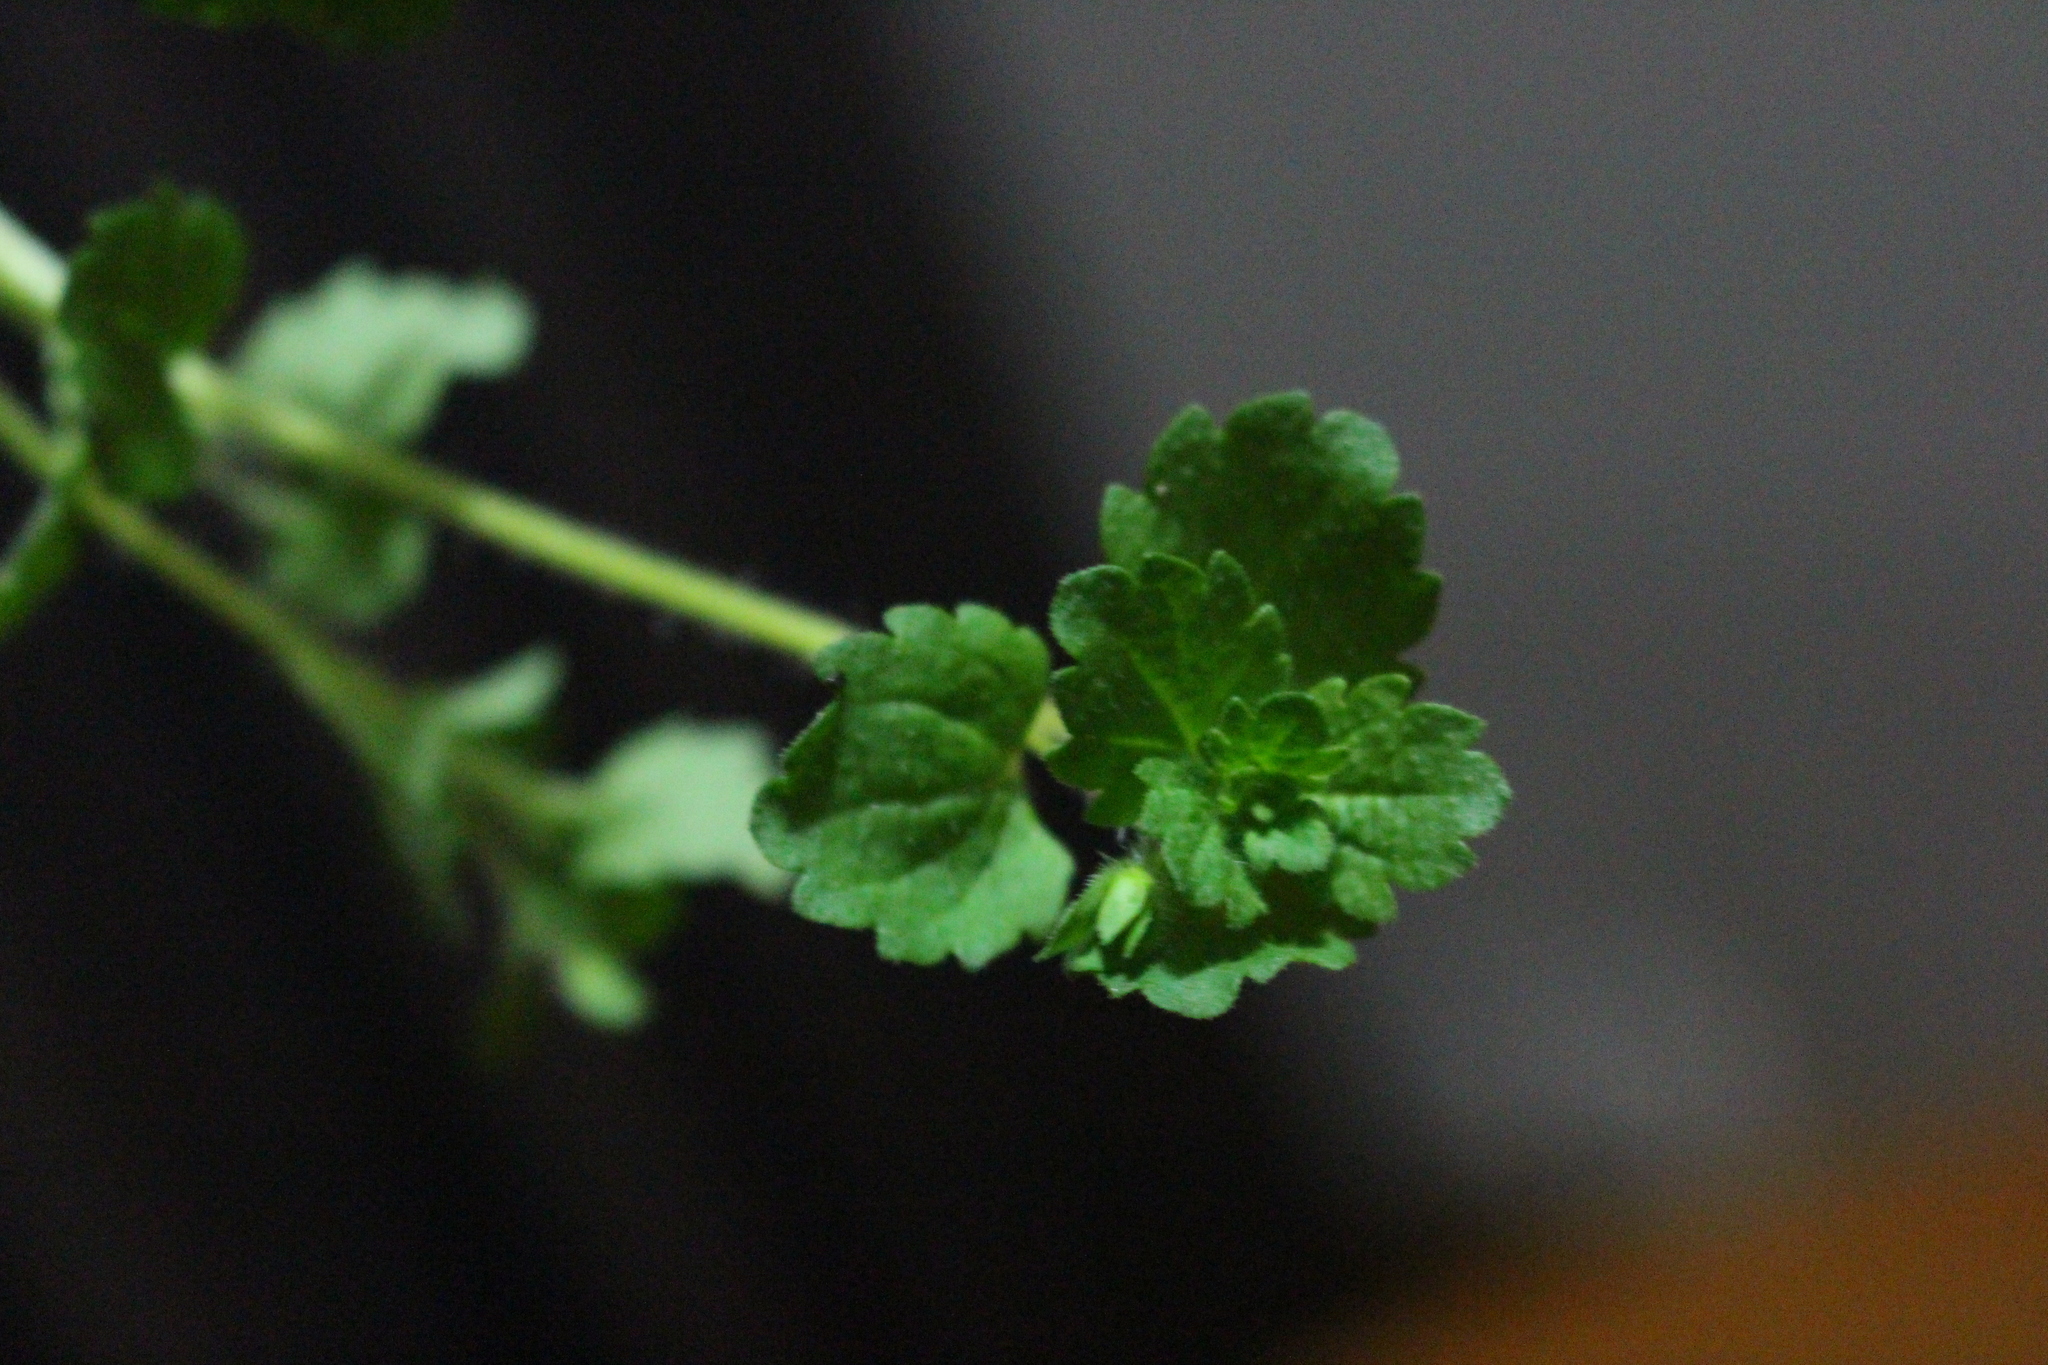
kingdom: Plantae
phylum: Tracheophyta
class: Magnoliopsida
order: Lamiales
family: Plantaginaceae
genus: Veronica
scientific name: Veronica persica
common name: Common field-speedwell
